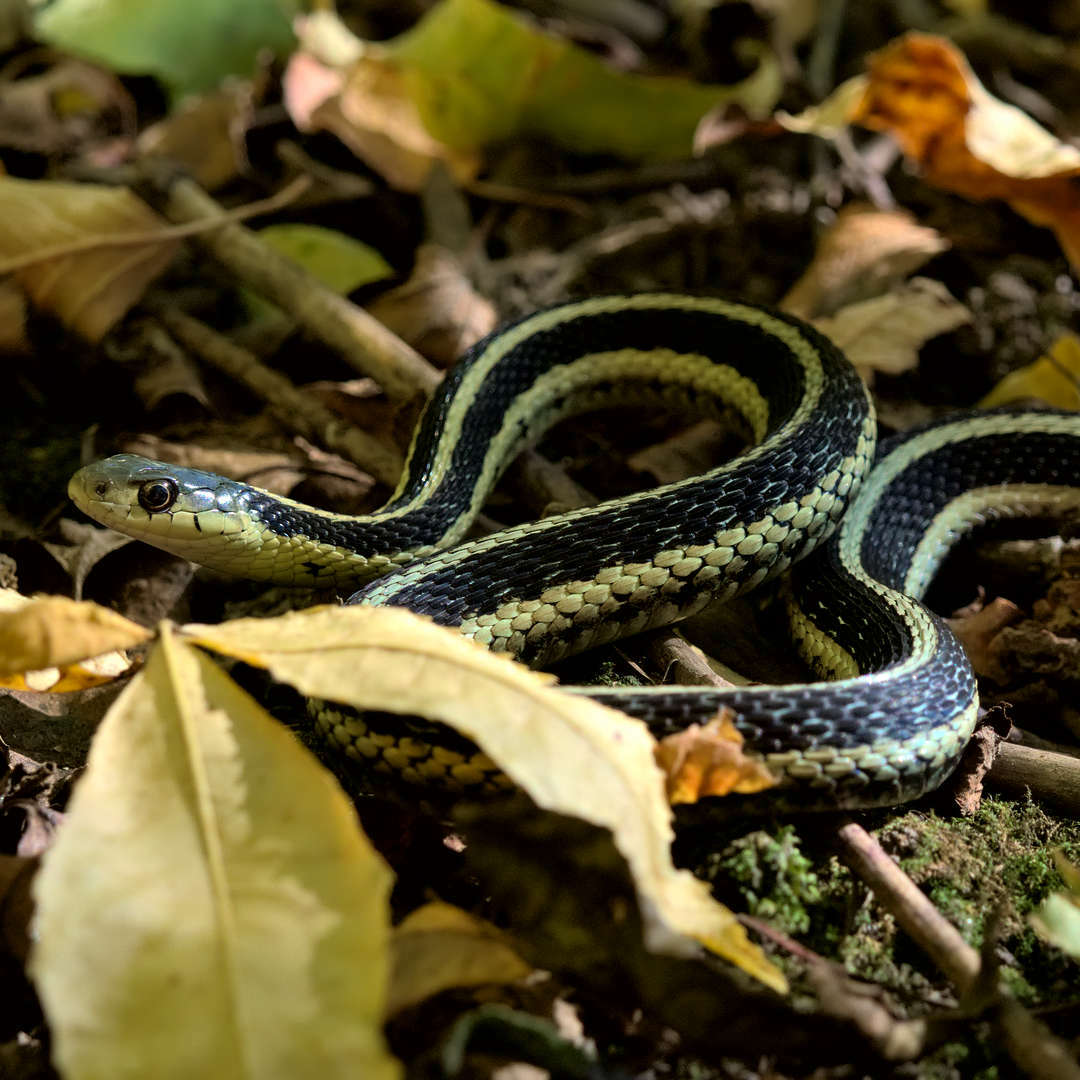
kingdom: Animalia
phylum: Chordata
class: Squamata
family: Colubridae
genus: Thamnophis
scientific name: Thamnophis sirtalis
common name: Common garter snake
